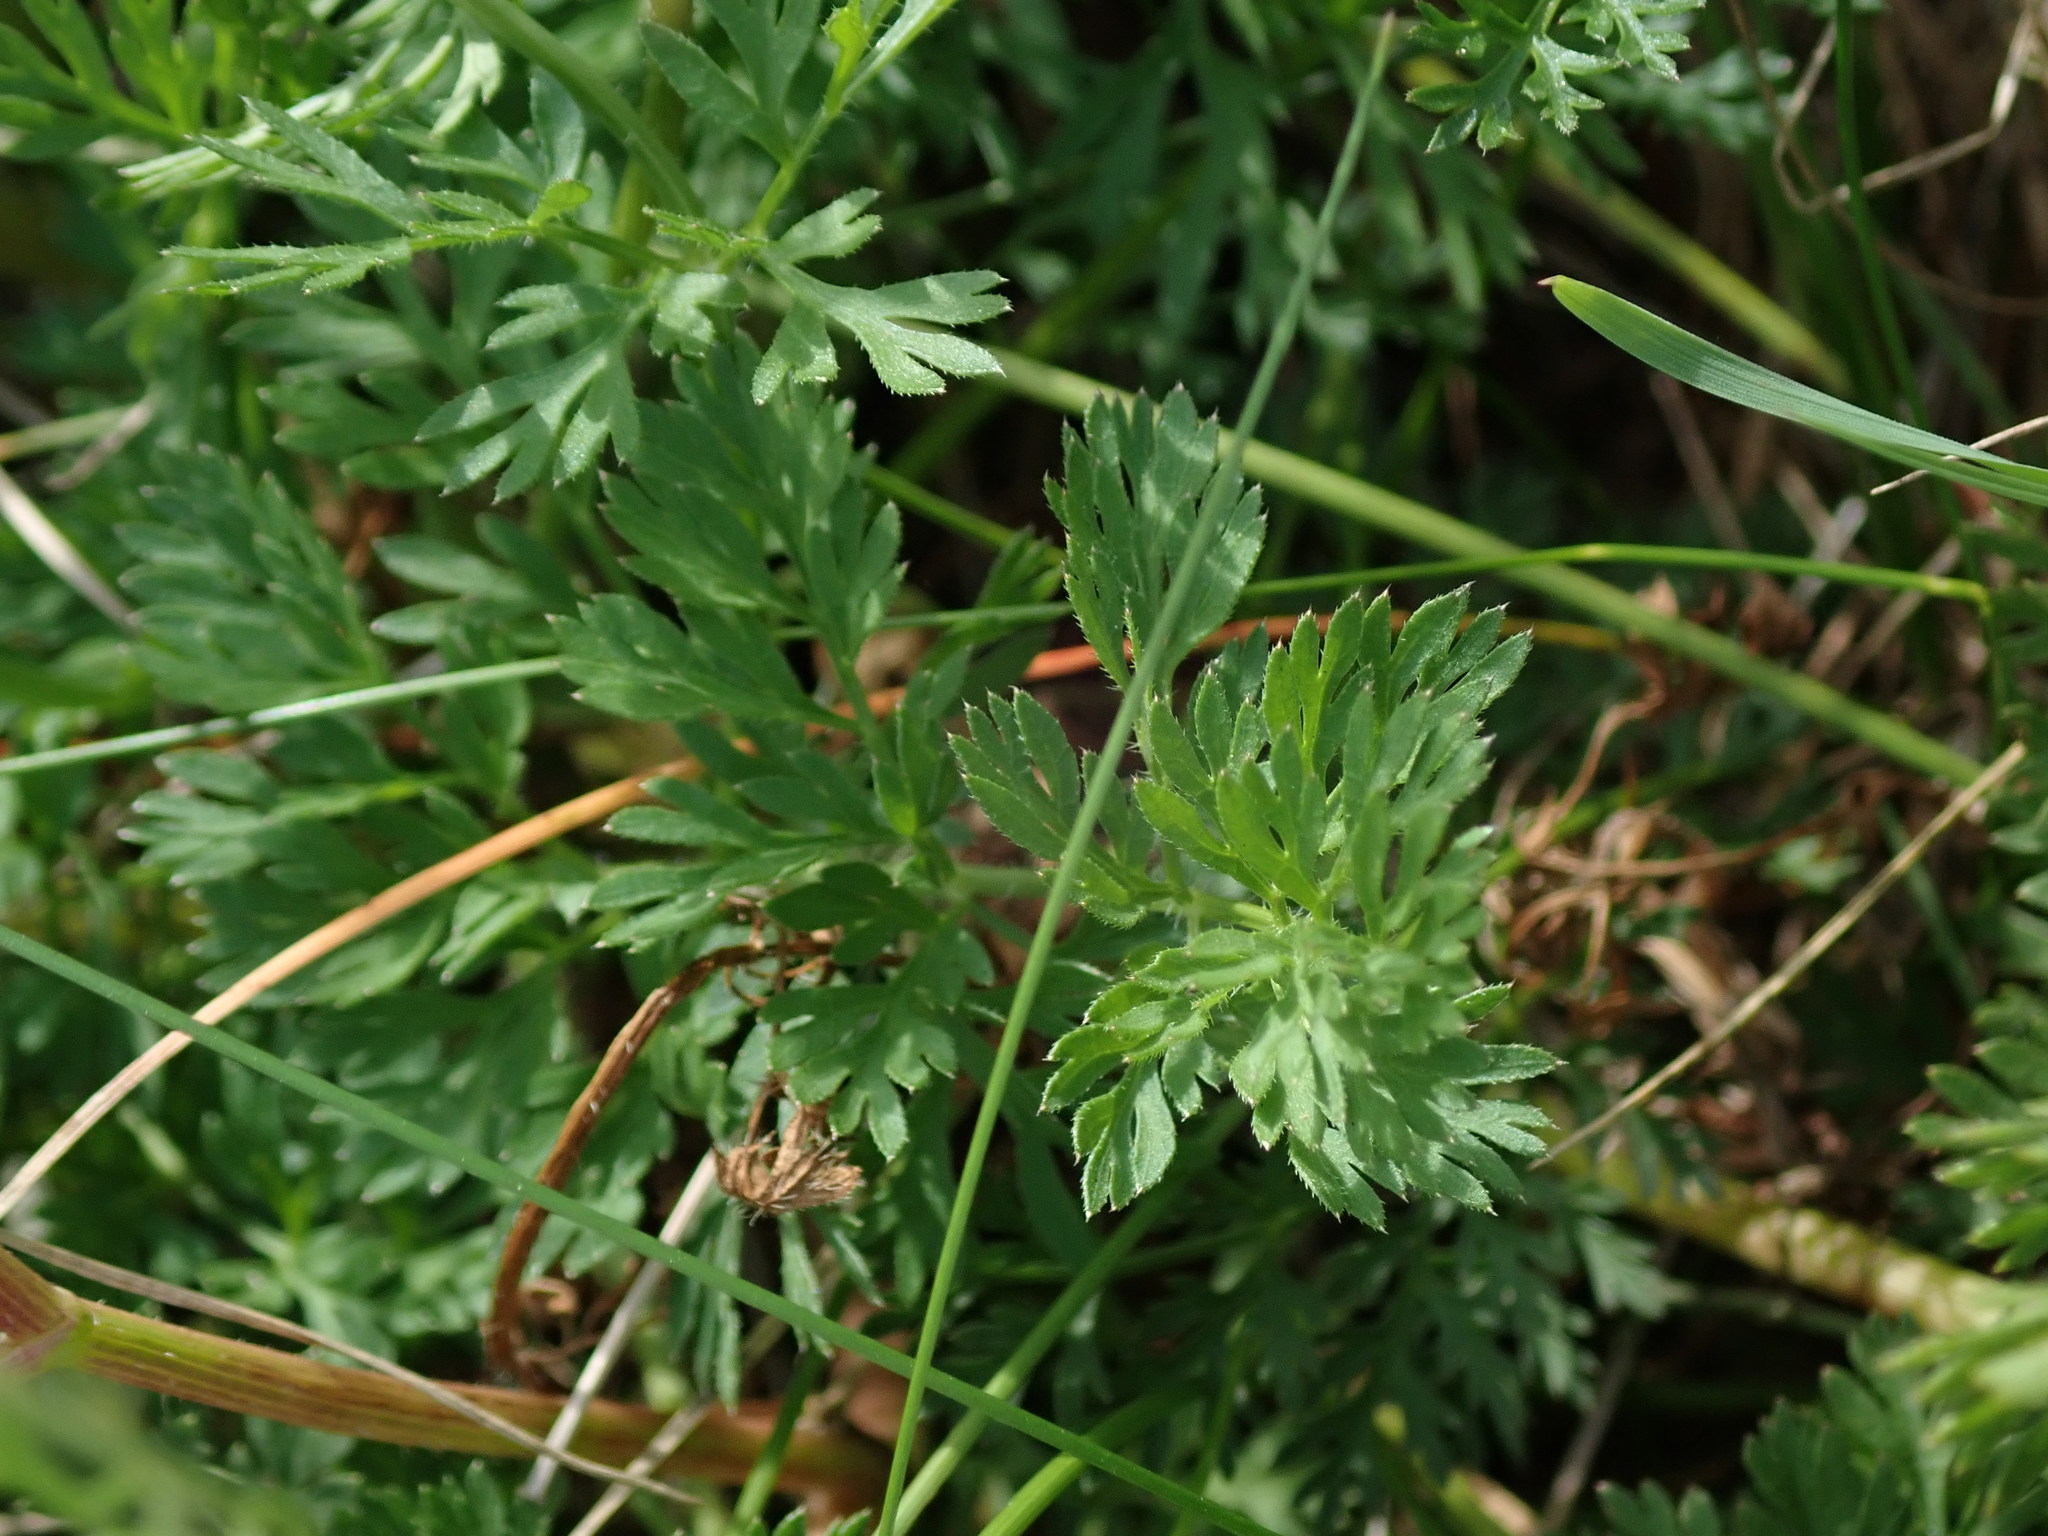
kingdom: Plantae
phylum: Tracheophyta
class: Magnoliopsida
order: Apiales
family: Apiaceae
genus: Daucus
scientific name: Daucus carota
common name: Wild carrot
